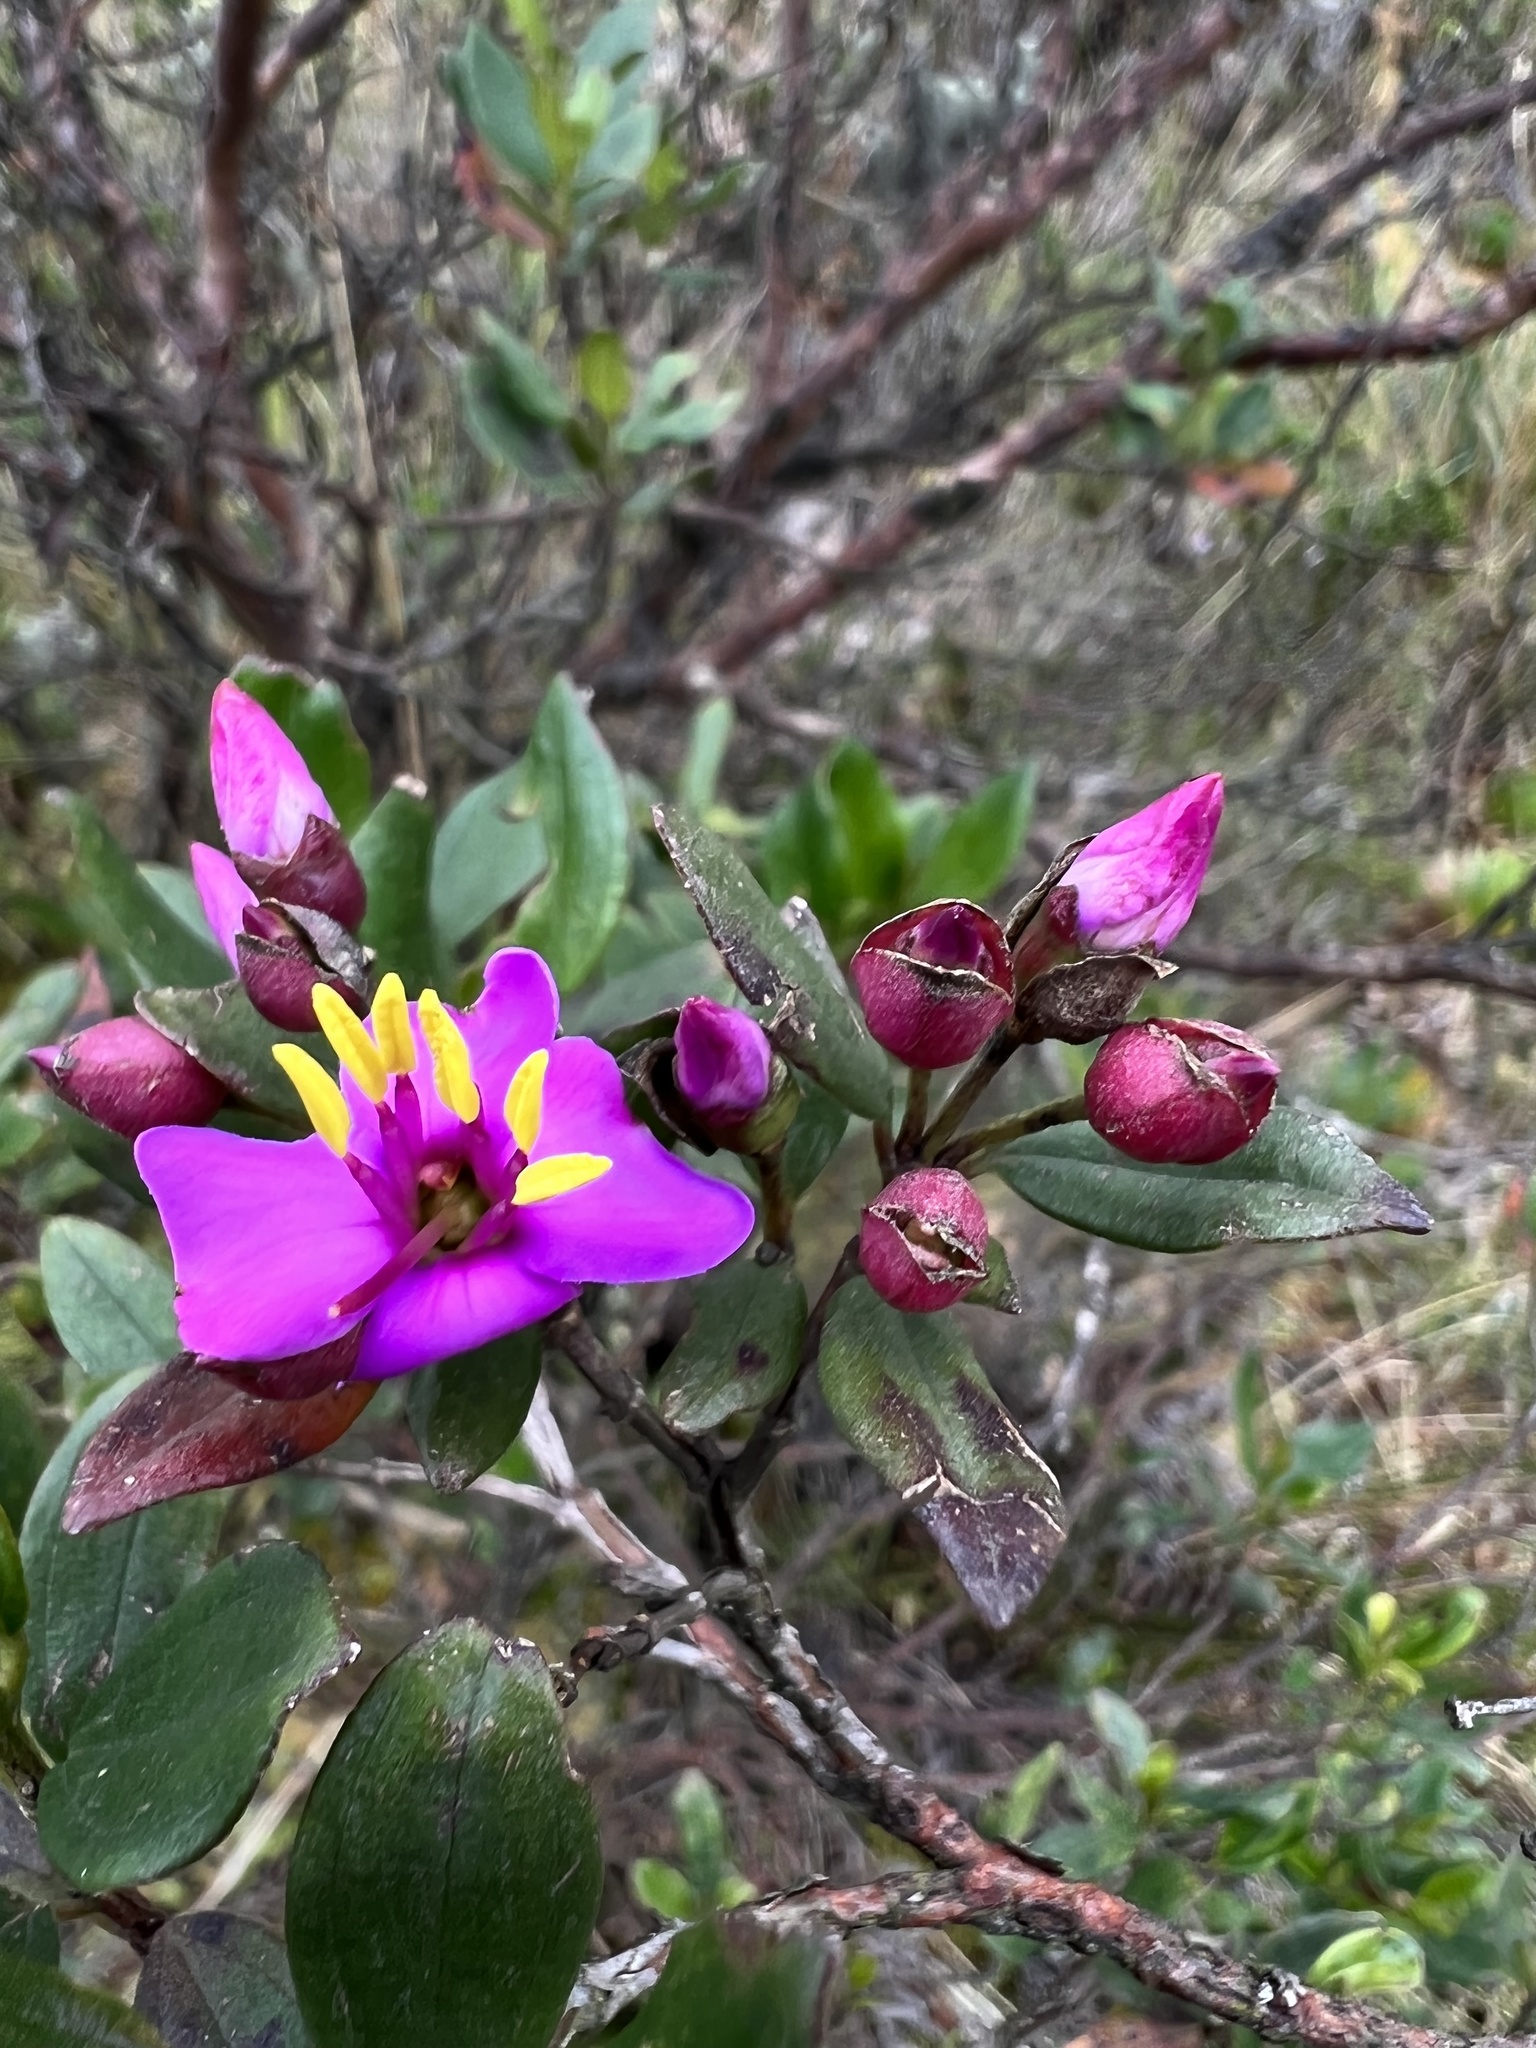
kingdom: Plantae
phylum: Tracheophyta
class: Magnoliopsida
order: Myrtales
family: Melastomataceae
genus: Bucquetia
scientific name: Bucquetia glutinosa
